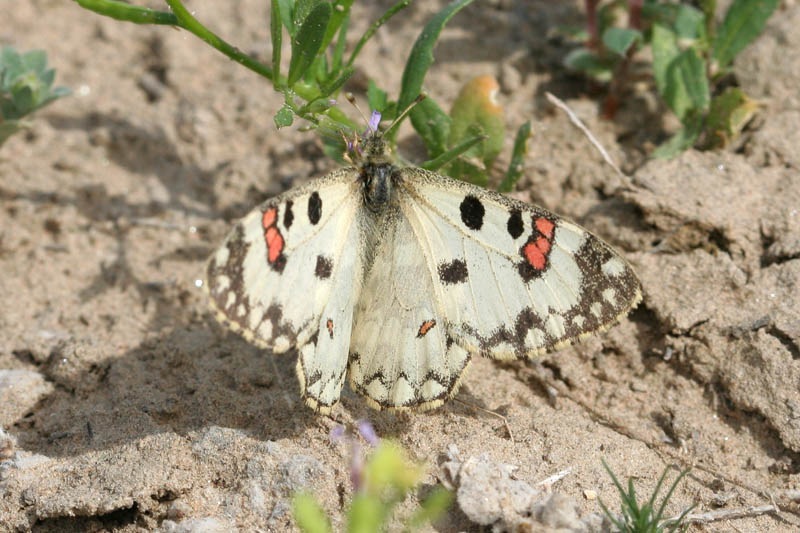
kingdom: Animalia
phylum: Arthropoda
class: Insecta
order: Lepidoptera
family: Papilionidae
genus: Hypermnestra
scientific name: Hypermnestra helios
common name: Desert apollo
